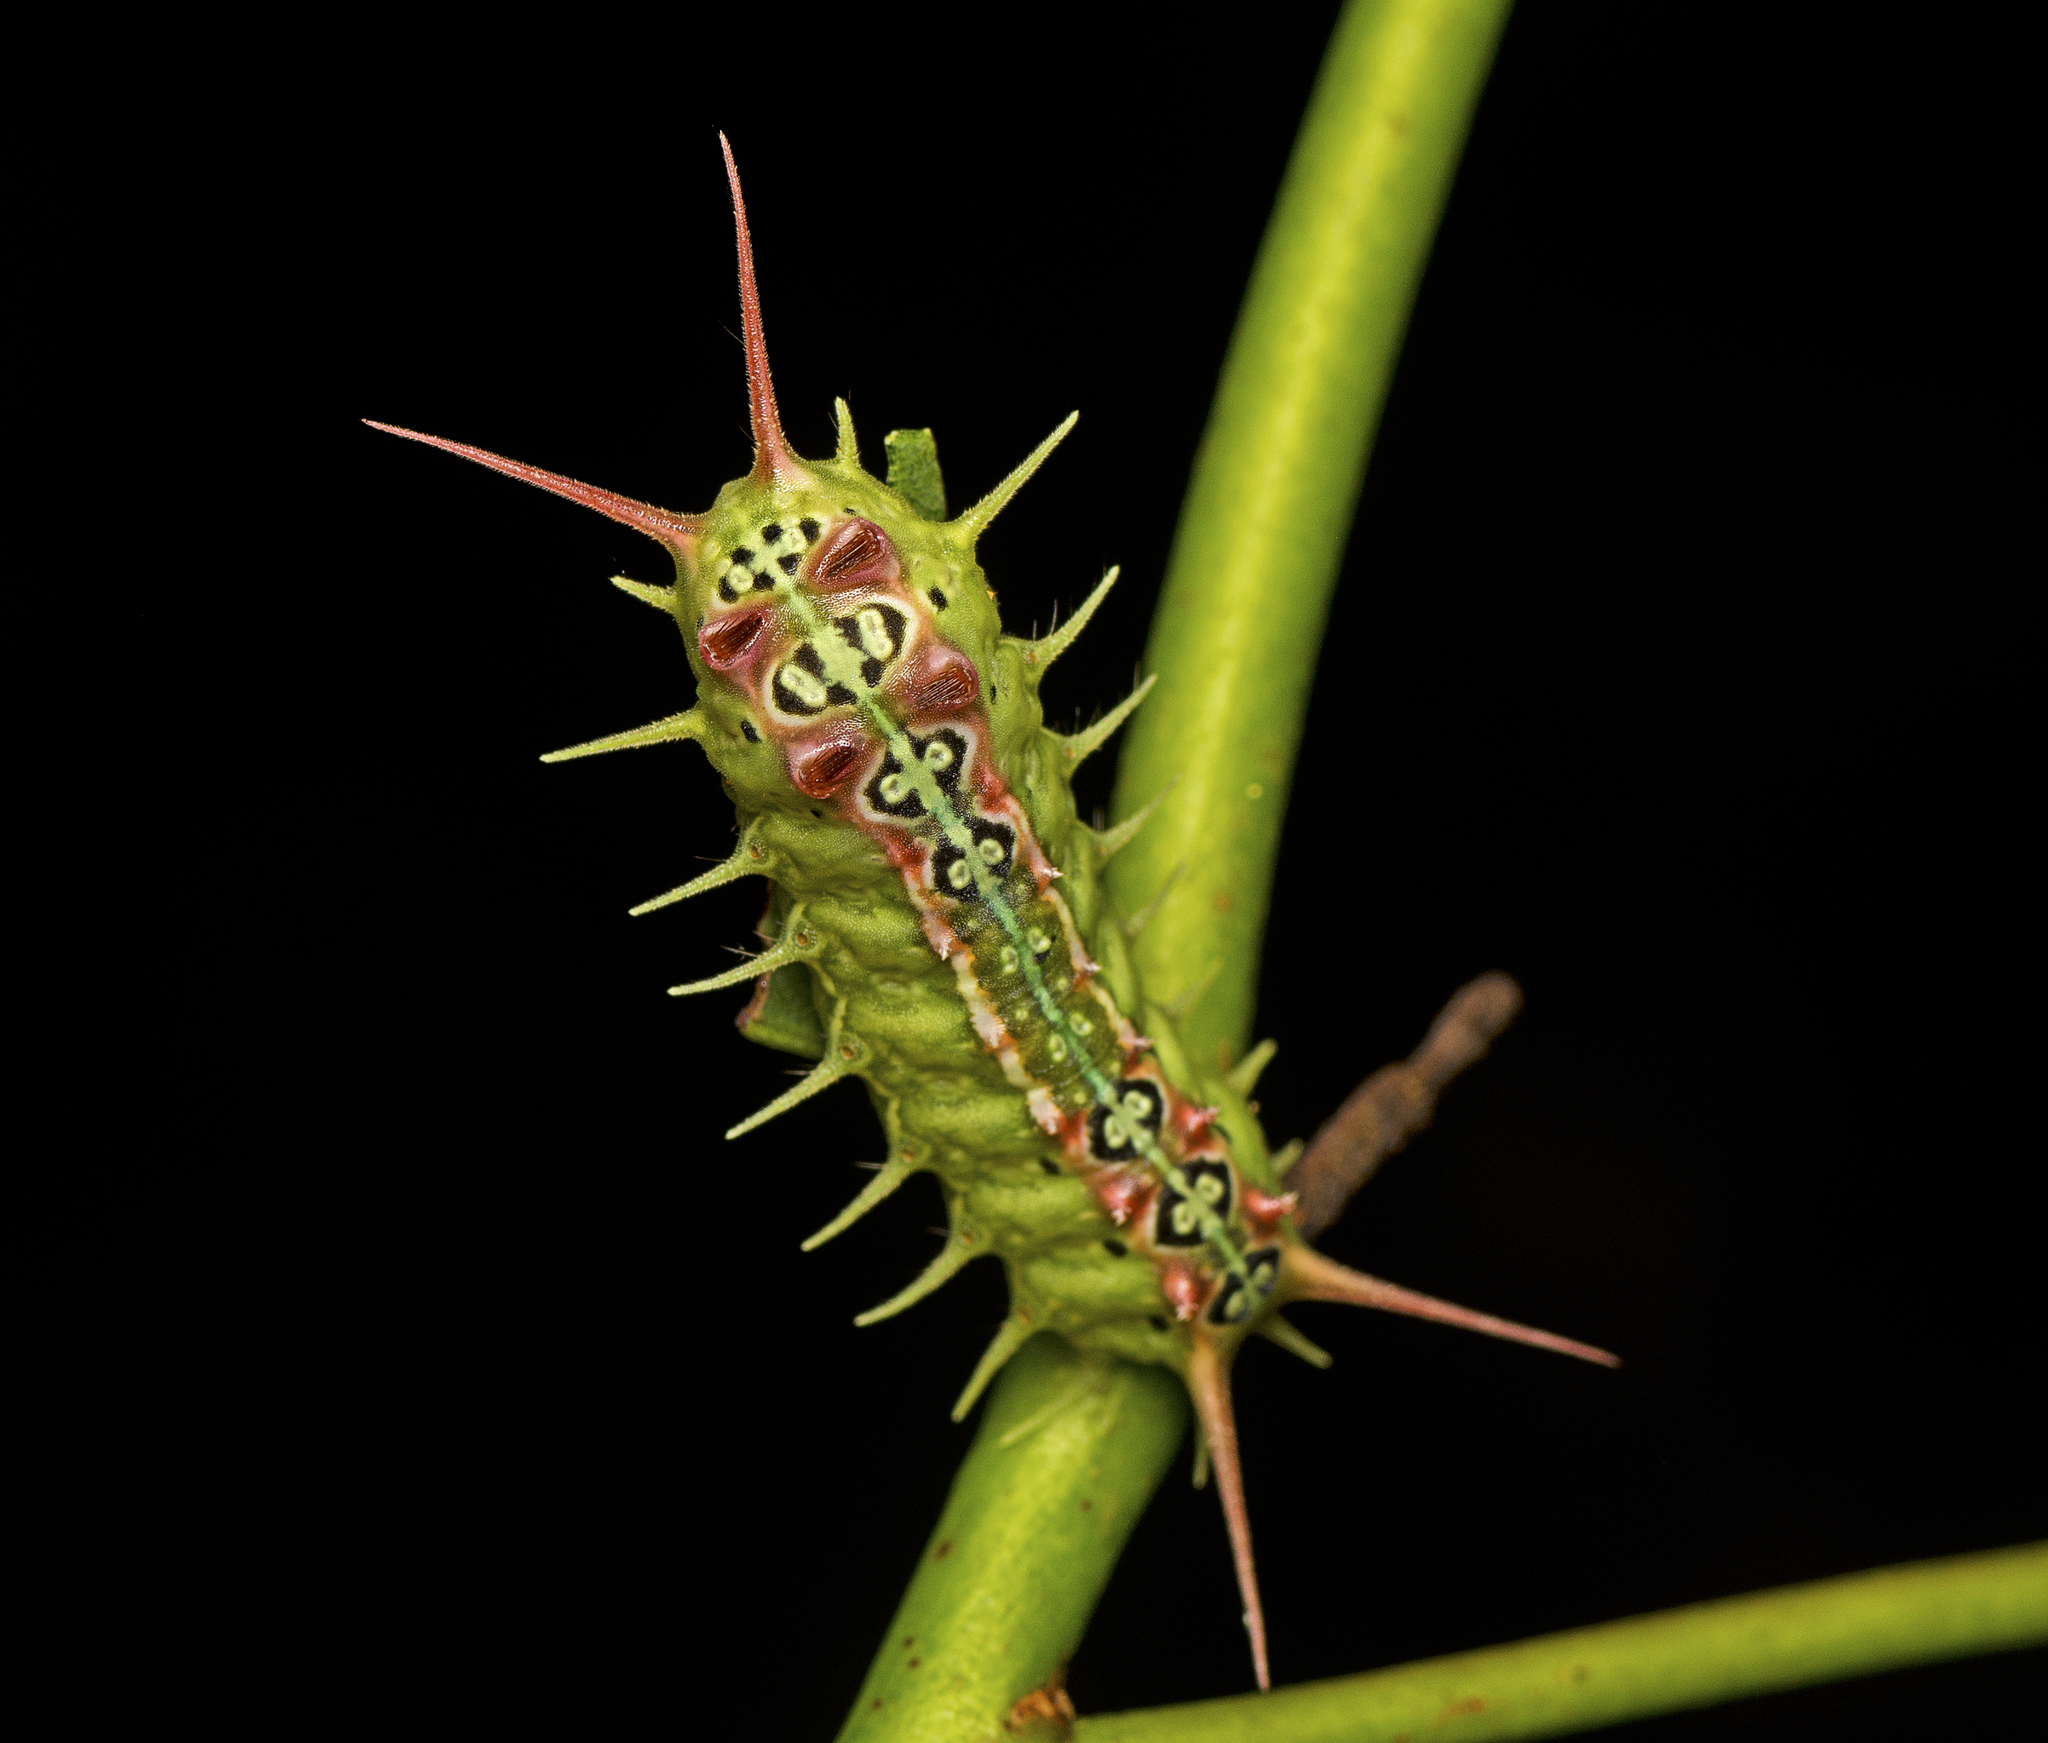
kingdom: Animalia
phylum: Arthropoda
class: Insecta
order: Lepidoptera
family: Limacodidae
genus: Doratifera
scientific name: Doratifera quadriguttata
